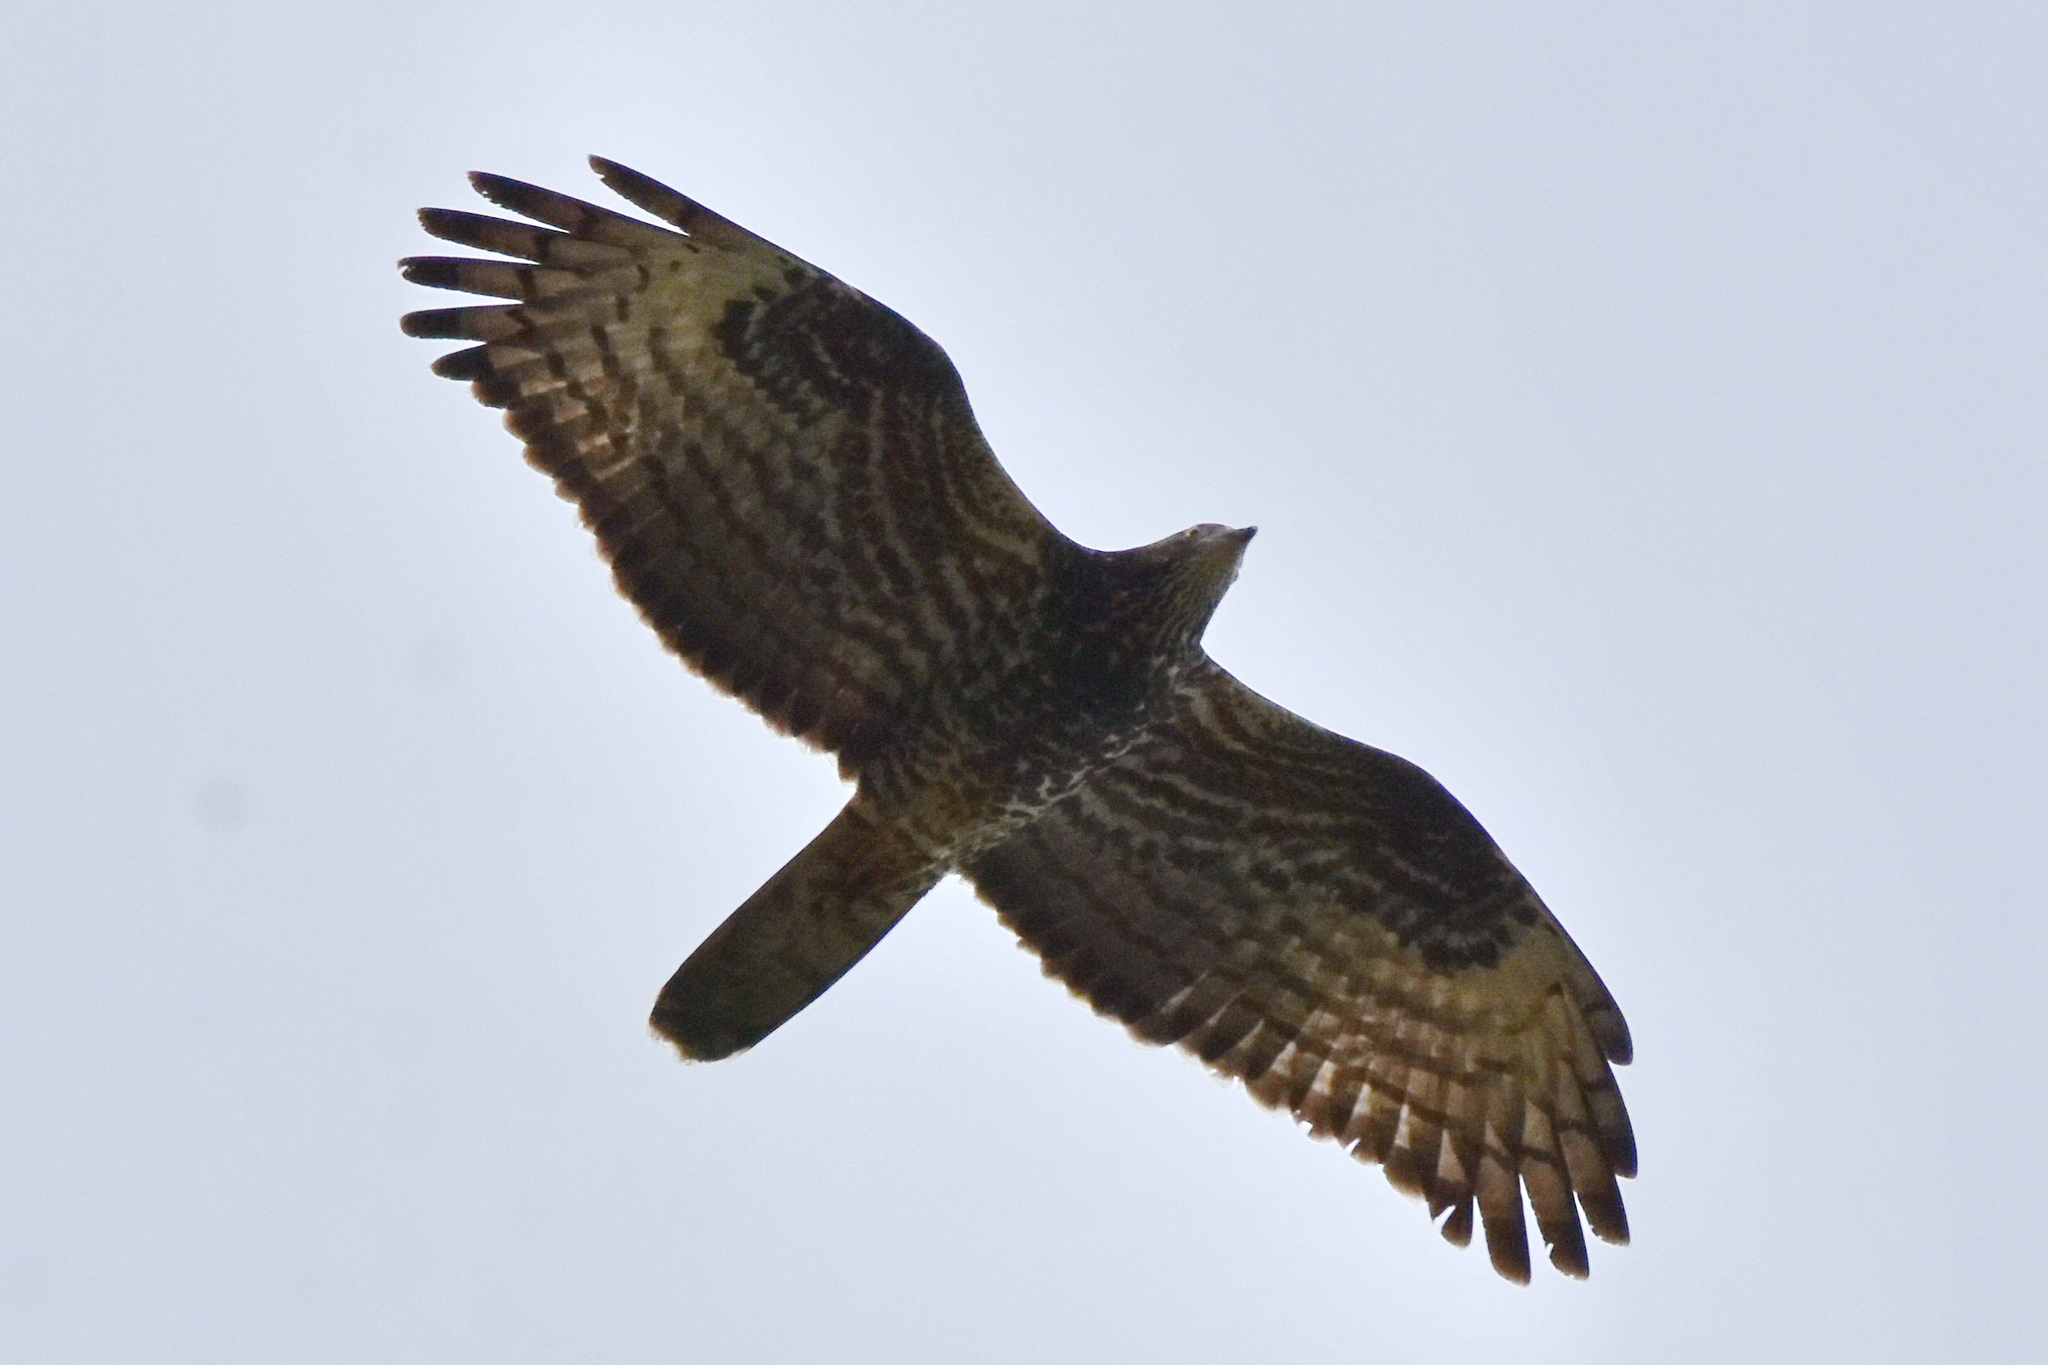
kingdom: Animalia
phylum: Chordata
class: Aves
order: Accipitriformes
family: Accipitridae
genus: Pernis
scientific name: Pernis apivorus
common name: European honey buzzard
